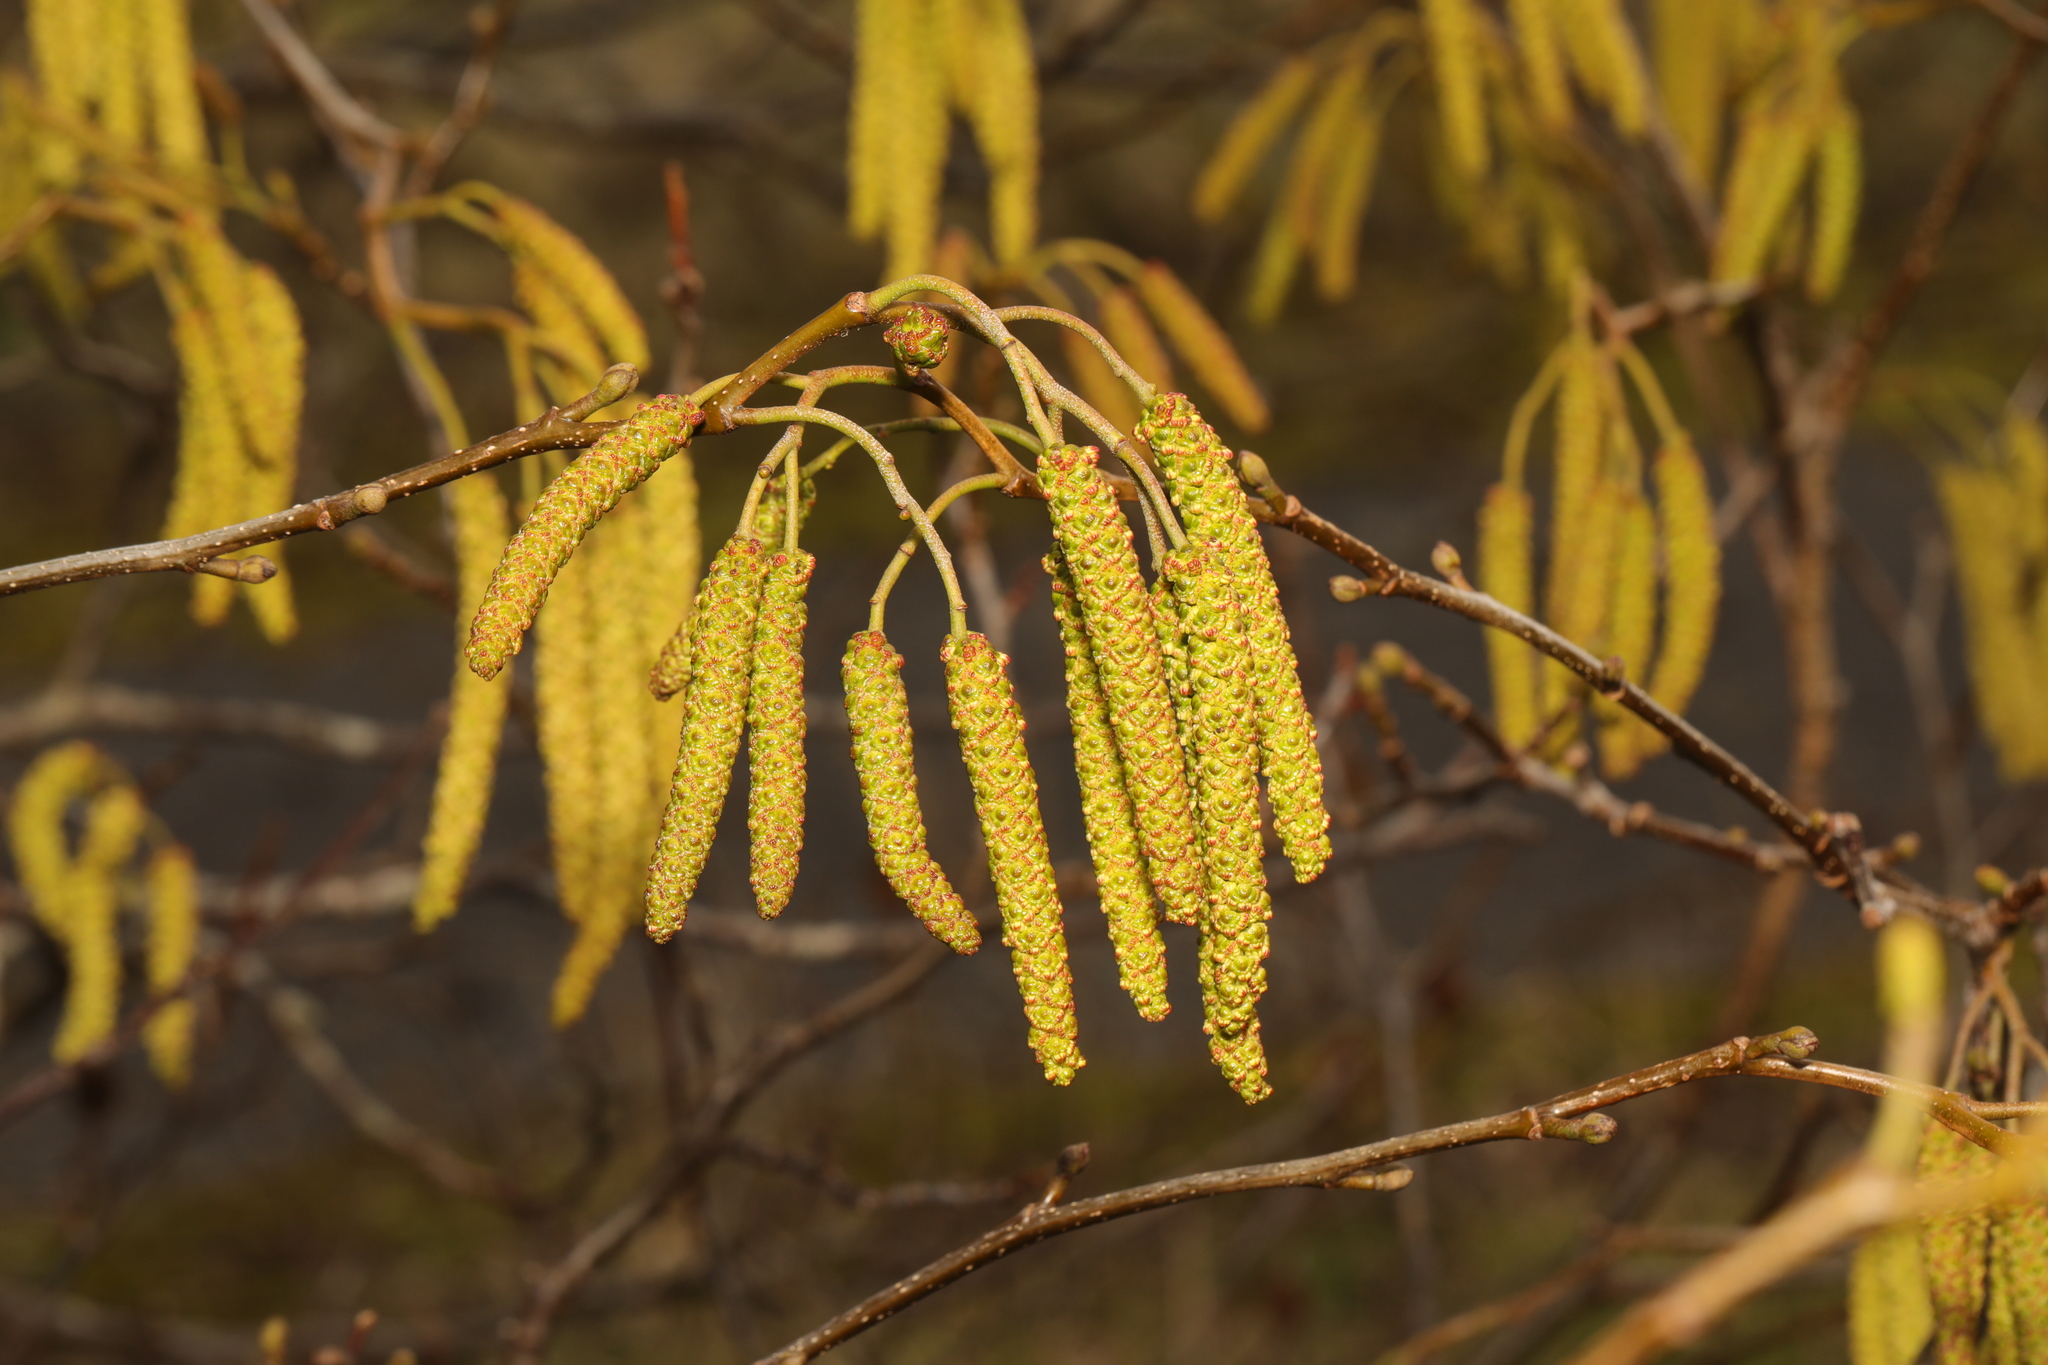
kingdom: Plantae
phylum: Tracheophyta
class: Magnoliopsida
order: Fagales
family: Betulaceae
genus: Alnus
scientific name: Alnus glutinosa
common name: Black alder
